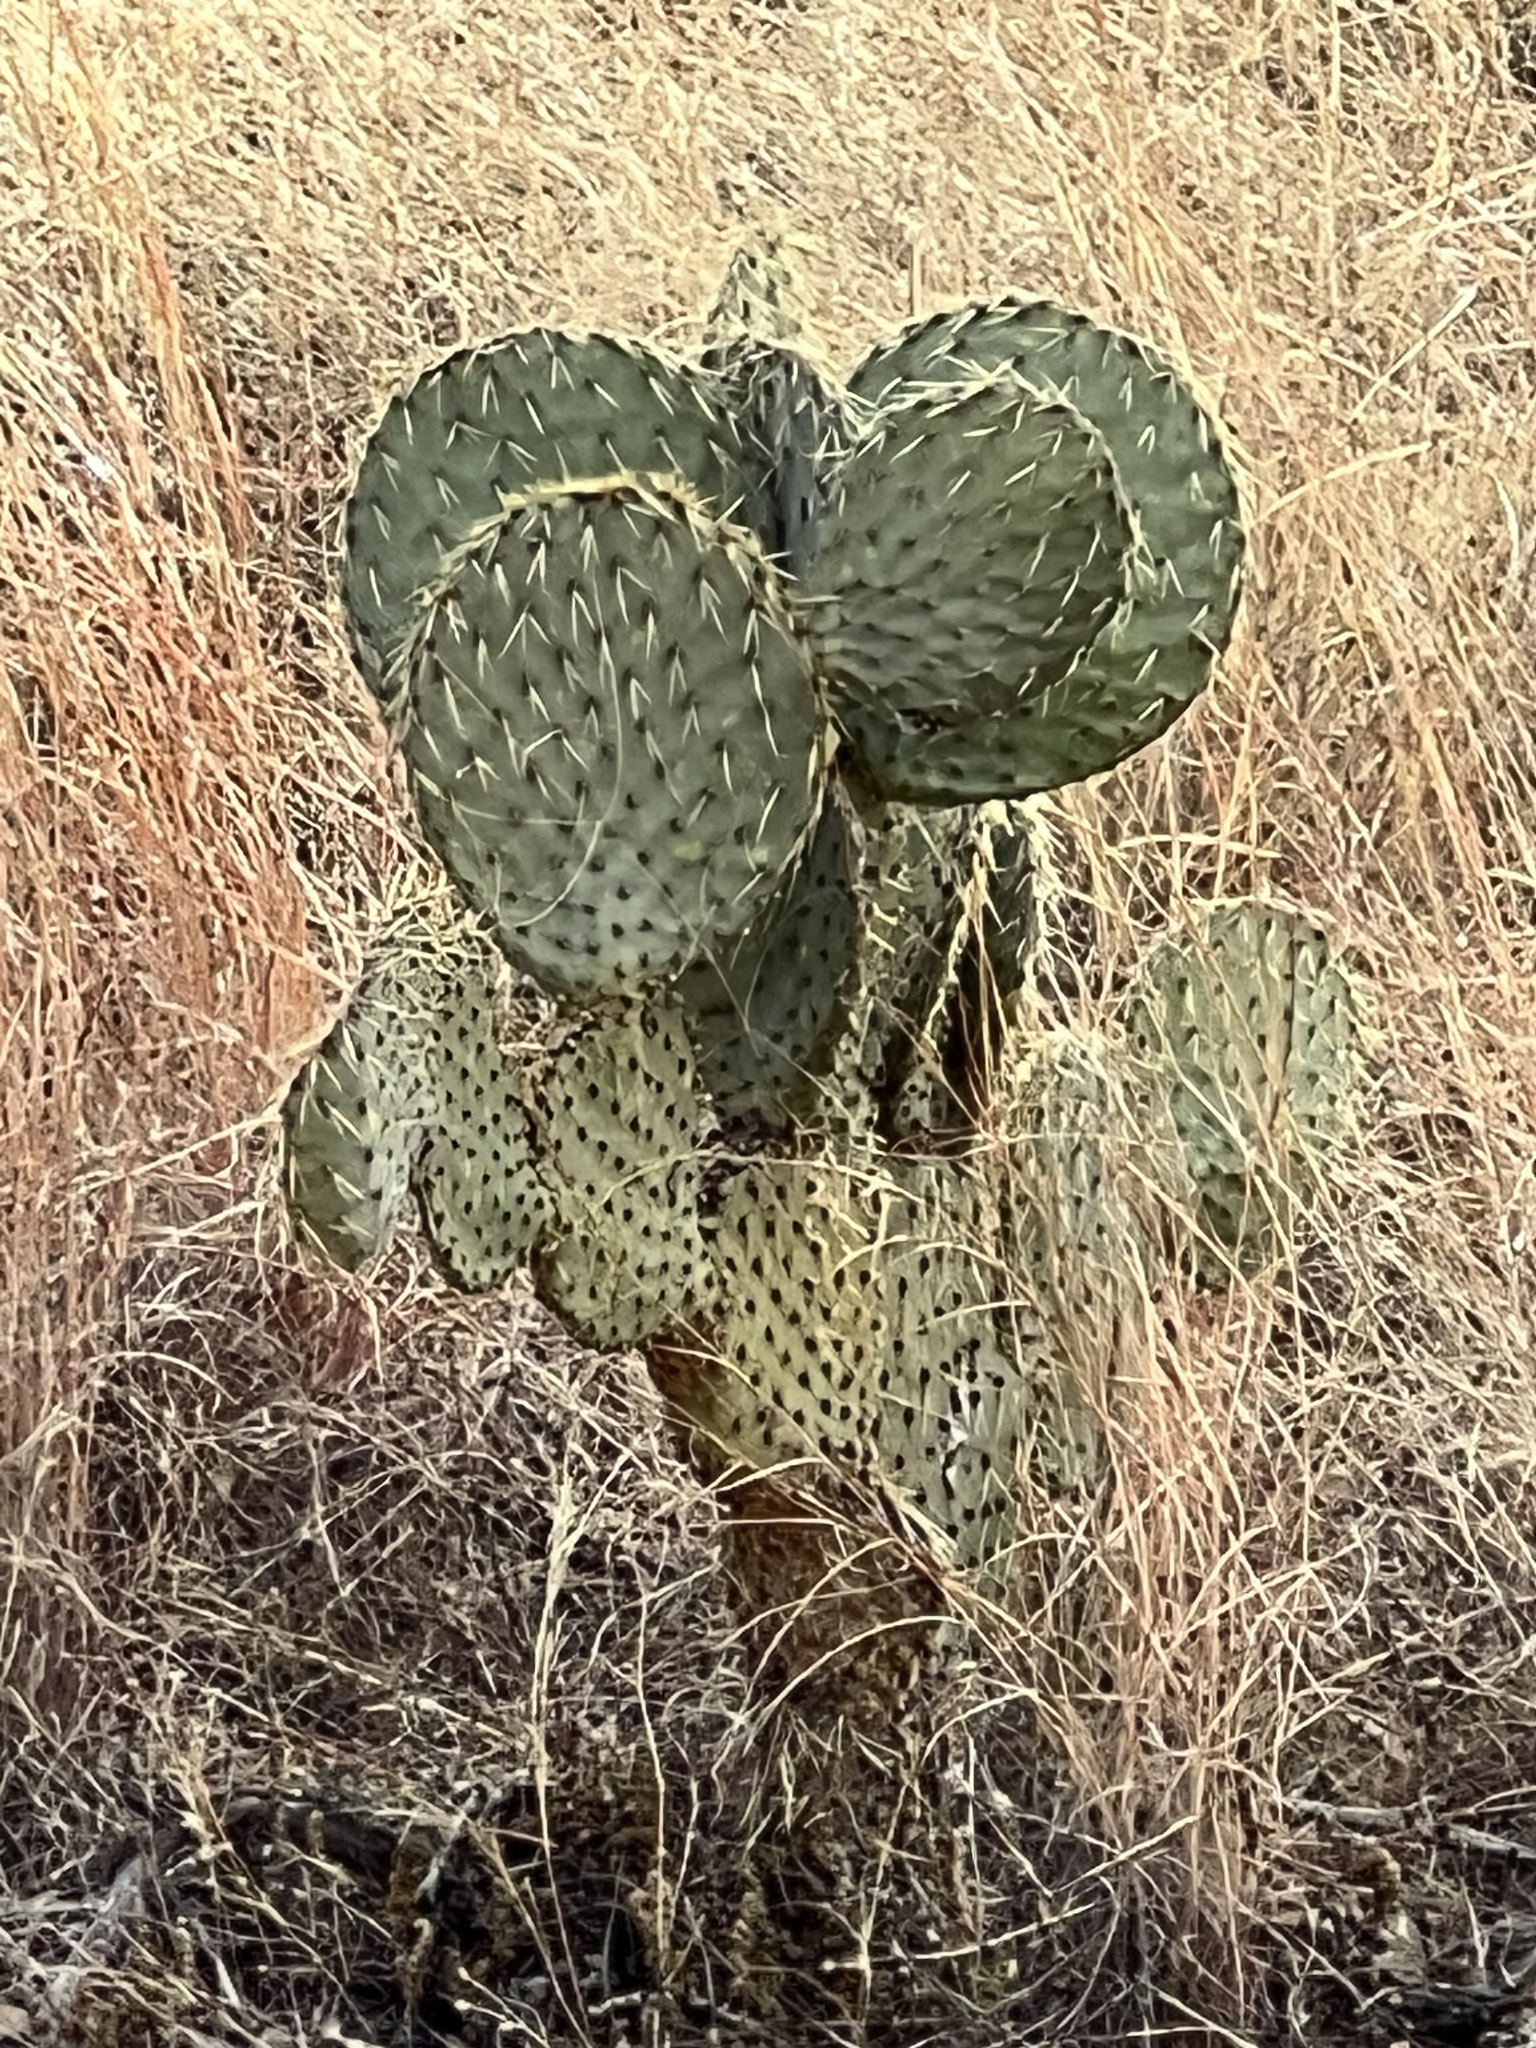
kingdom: Plantae
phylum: Tracheophyta
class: Magnoliopsida
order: Caryophyllales
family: Cactaceae
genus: Opuntia
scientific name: Opuntia chlorotica
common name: Dollar-joint prickly-pear
